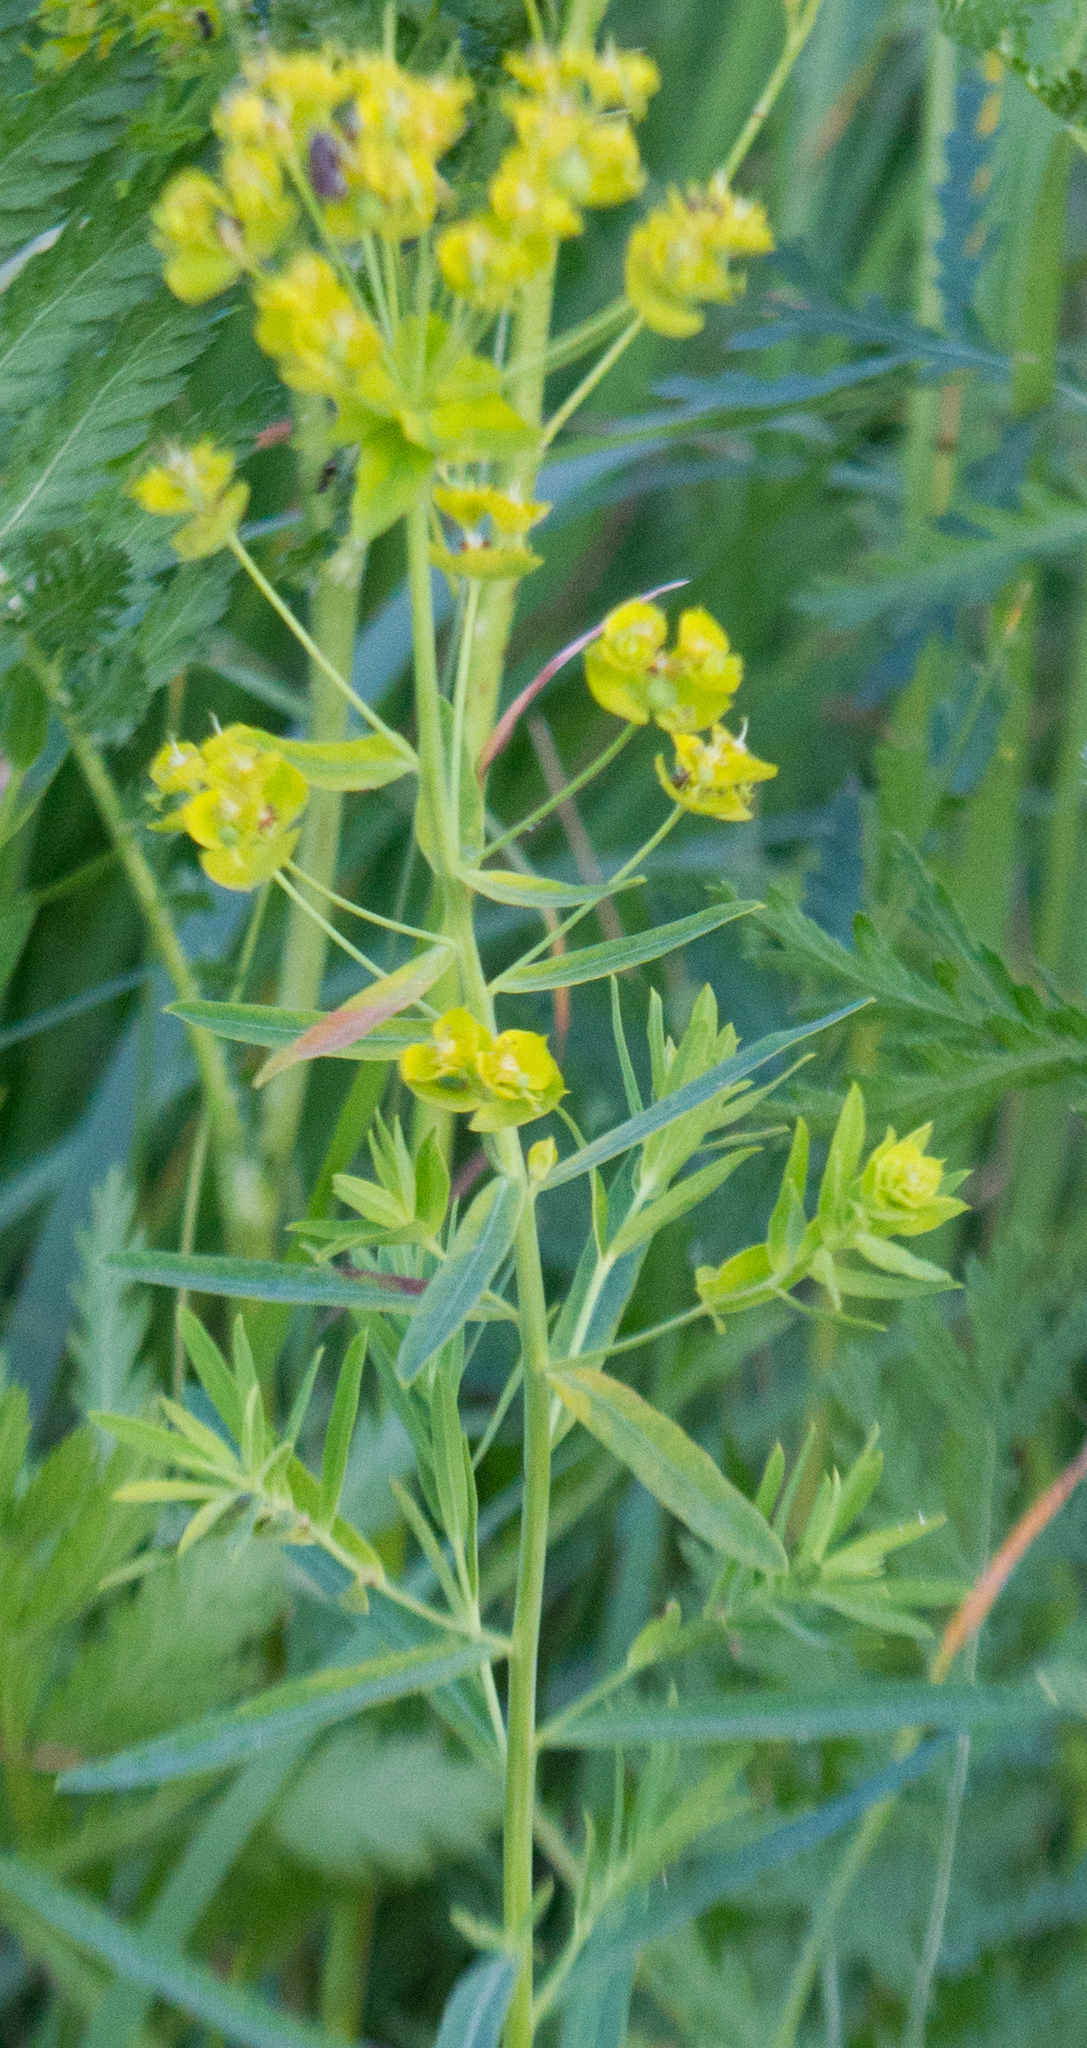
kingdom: Plantae
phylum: Tracheophyta
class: Magnoliopsida
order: Malpighiales
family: Euphorbiaceae
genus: Euphorbia
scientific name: Euphorbia virgata
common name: Leafy spurge
